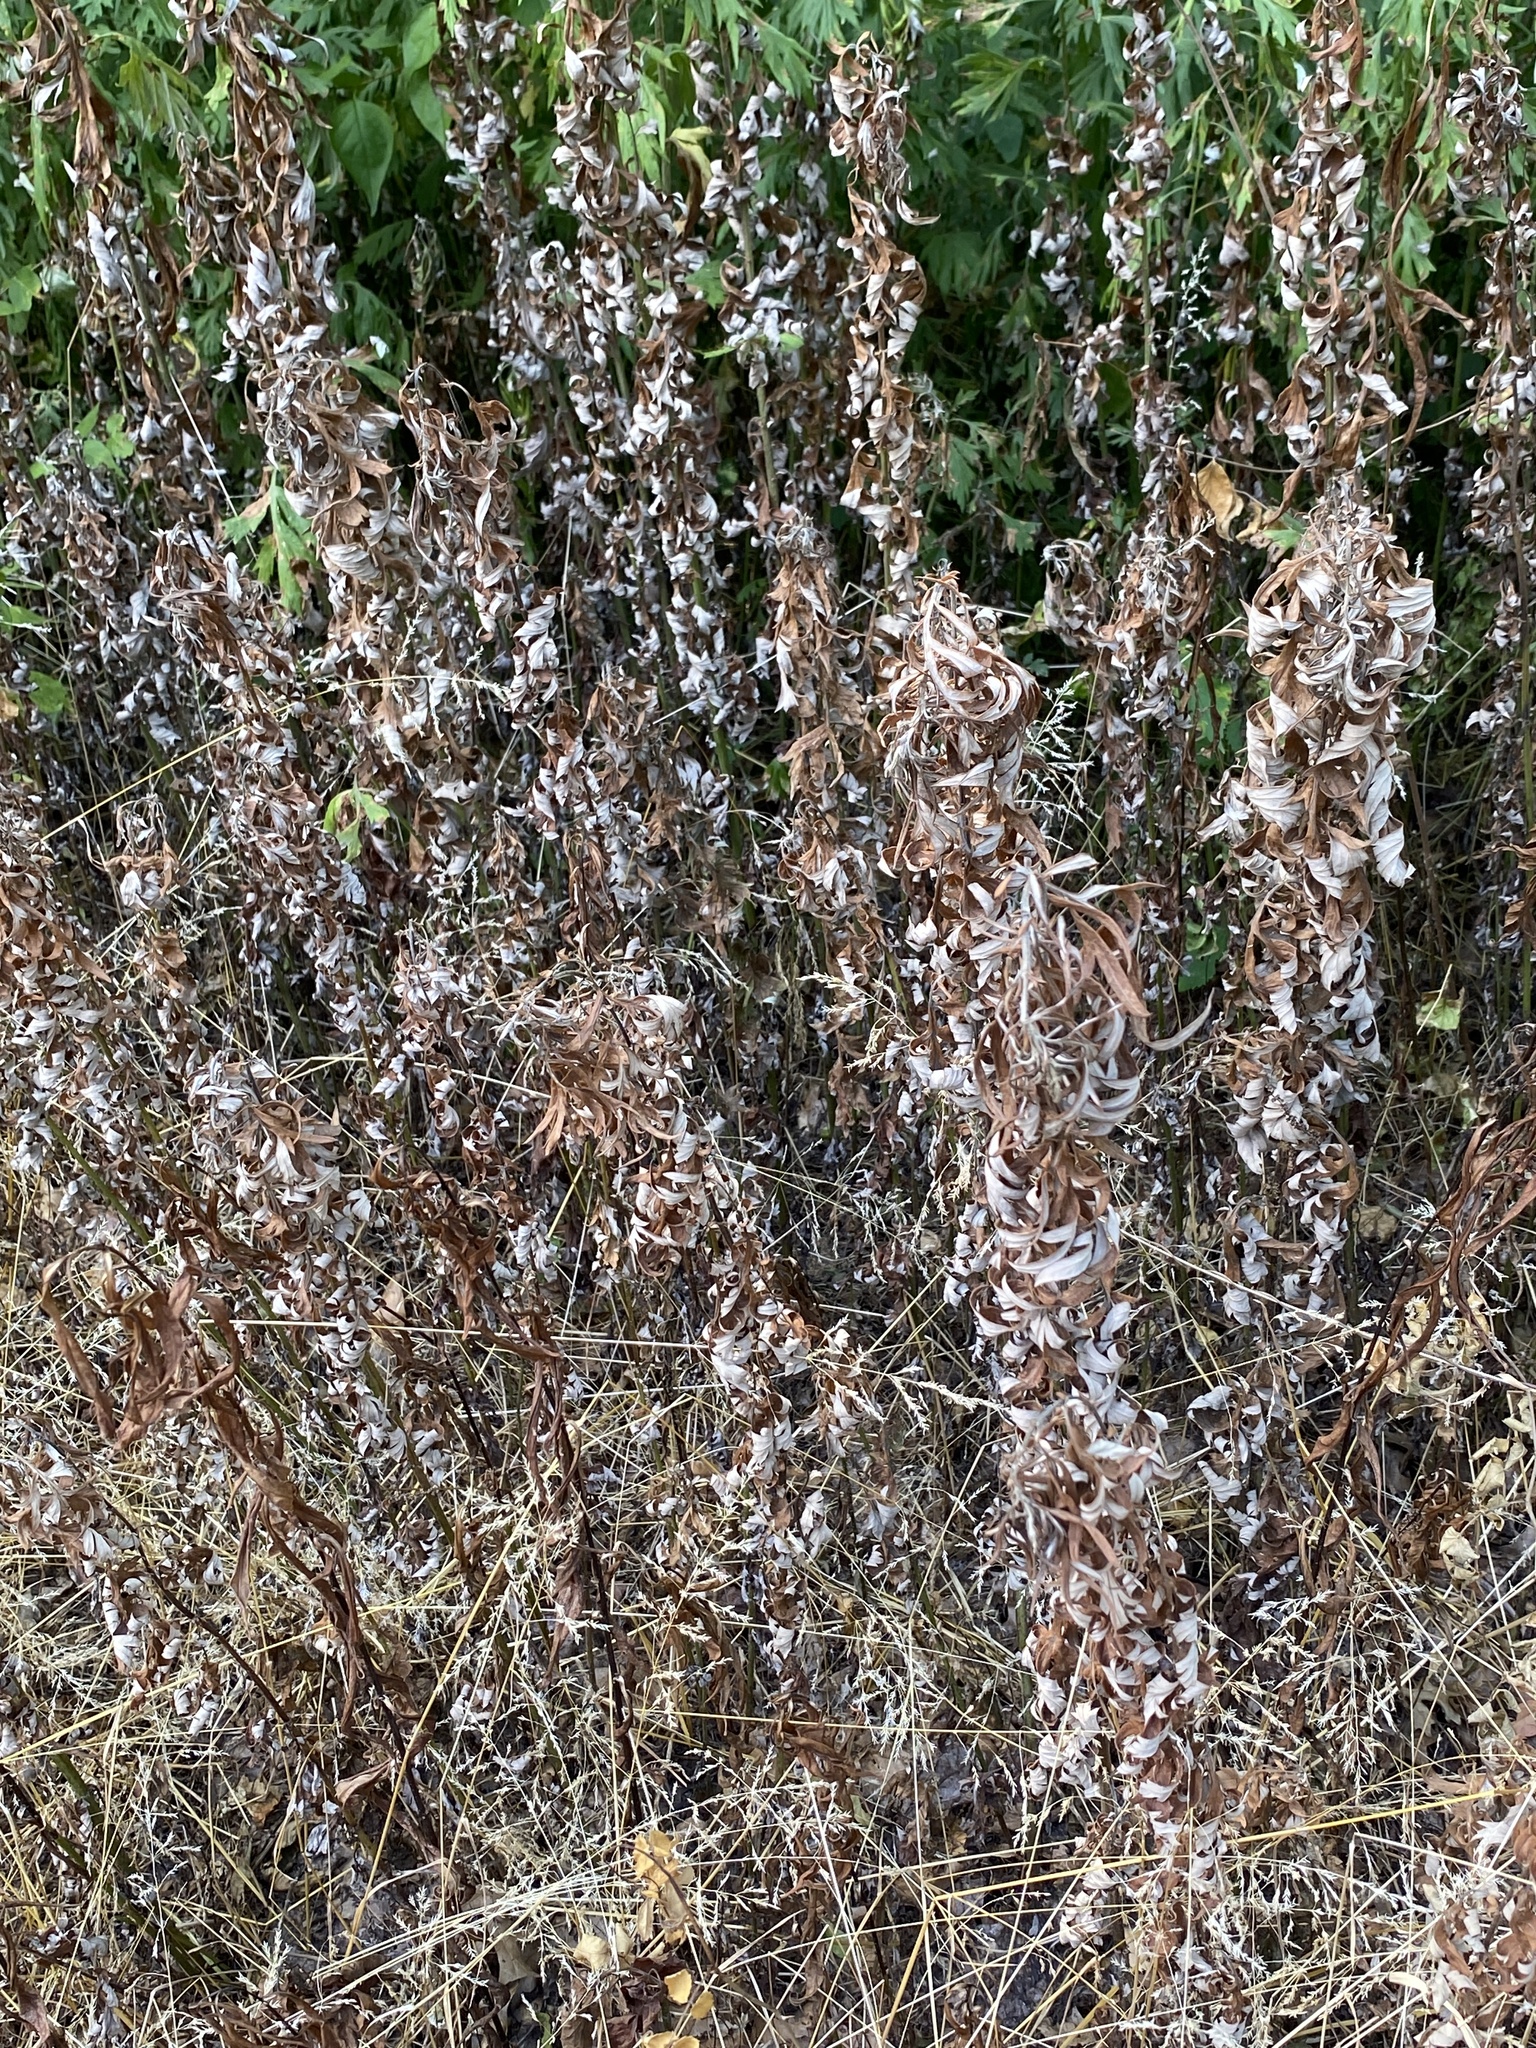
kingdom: Plantae
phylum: Tracheophyta
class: Magnoliopsida
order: Asterales
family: Asteraceae
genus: Artemisia
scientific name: Artemisia vulgaris
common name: Mugwort
